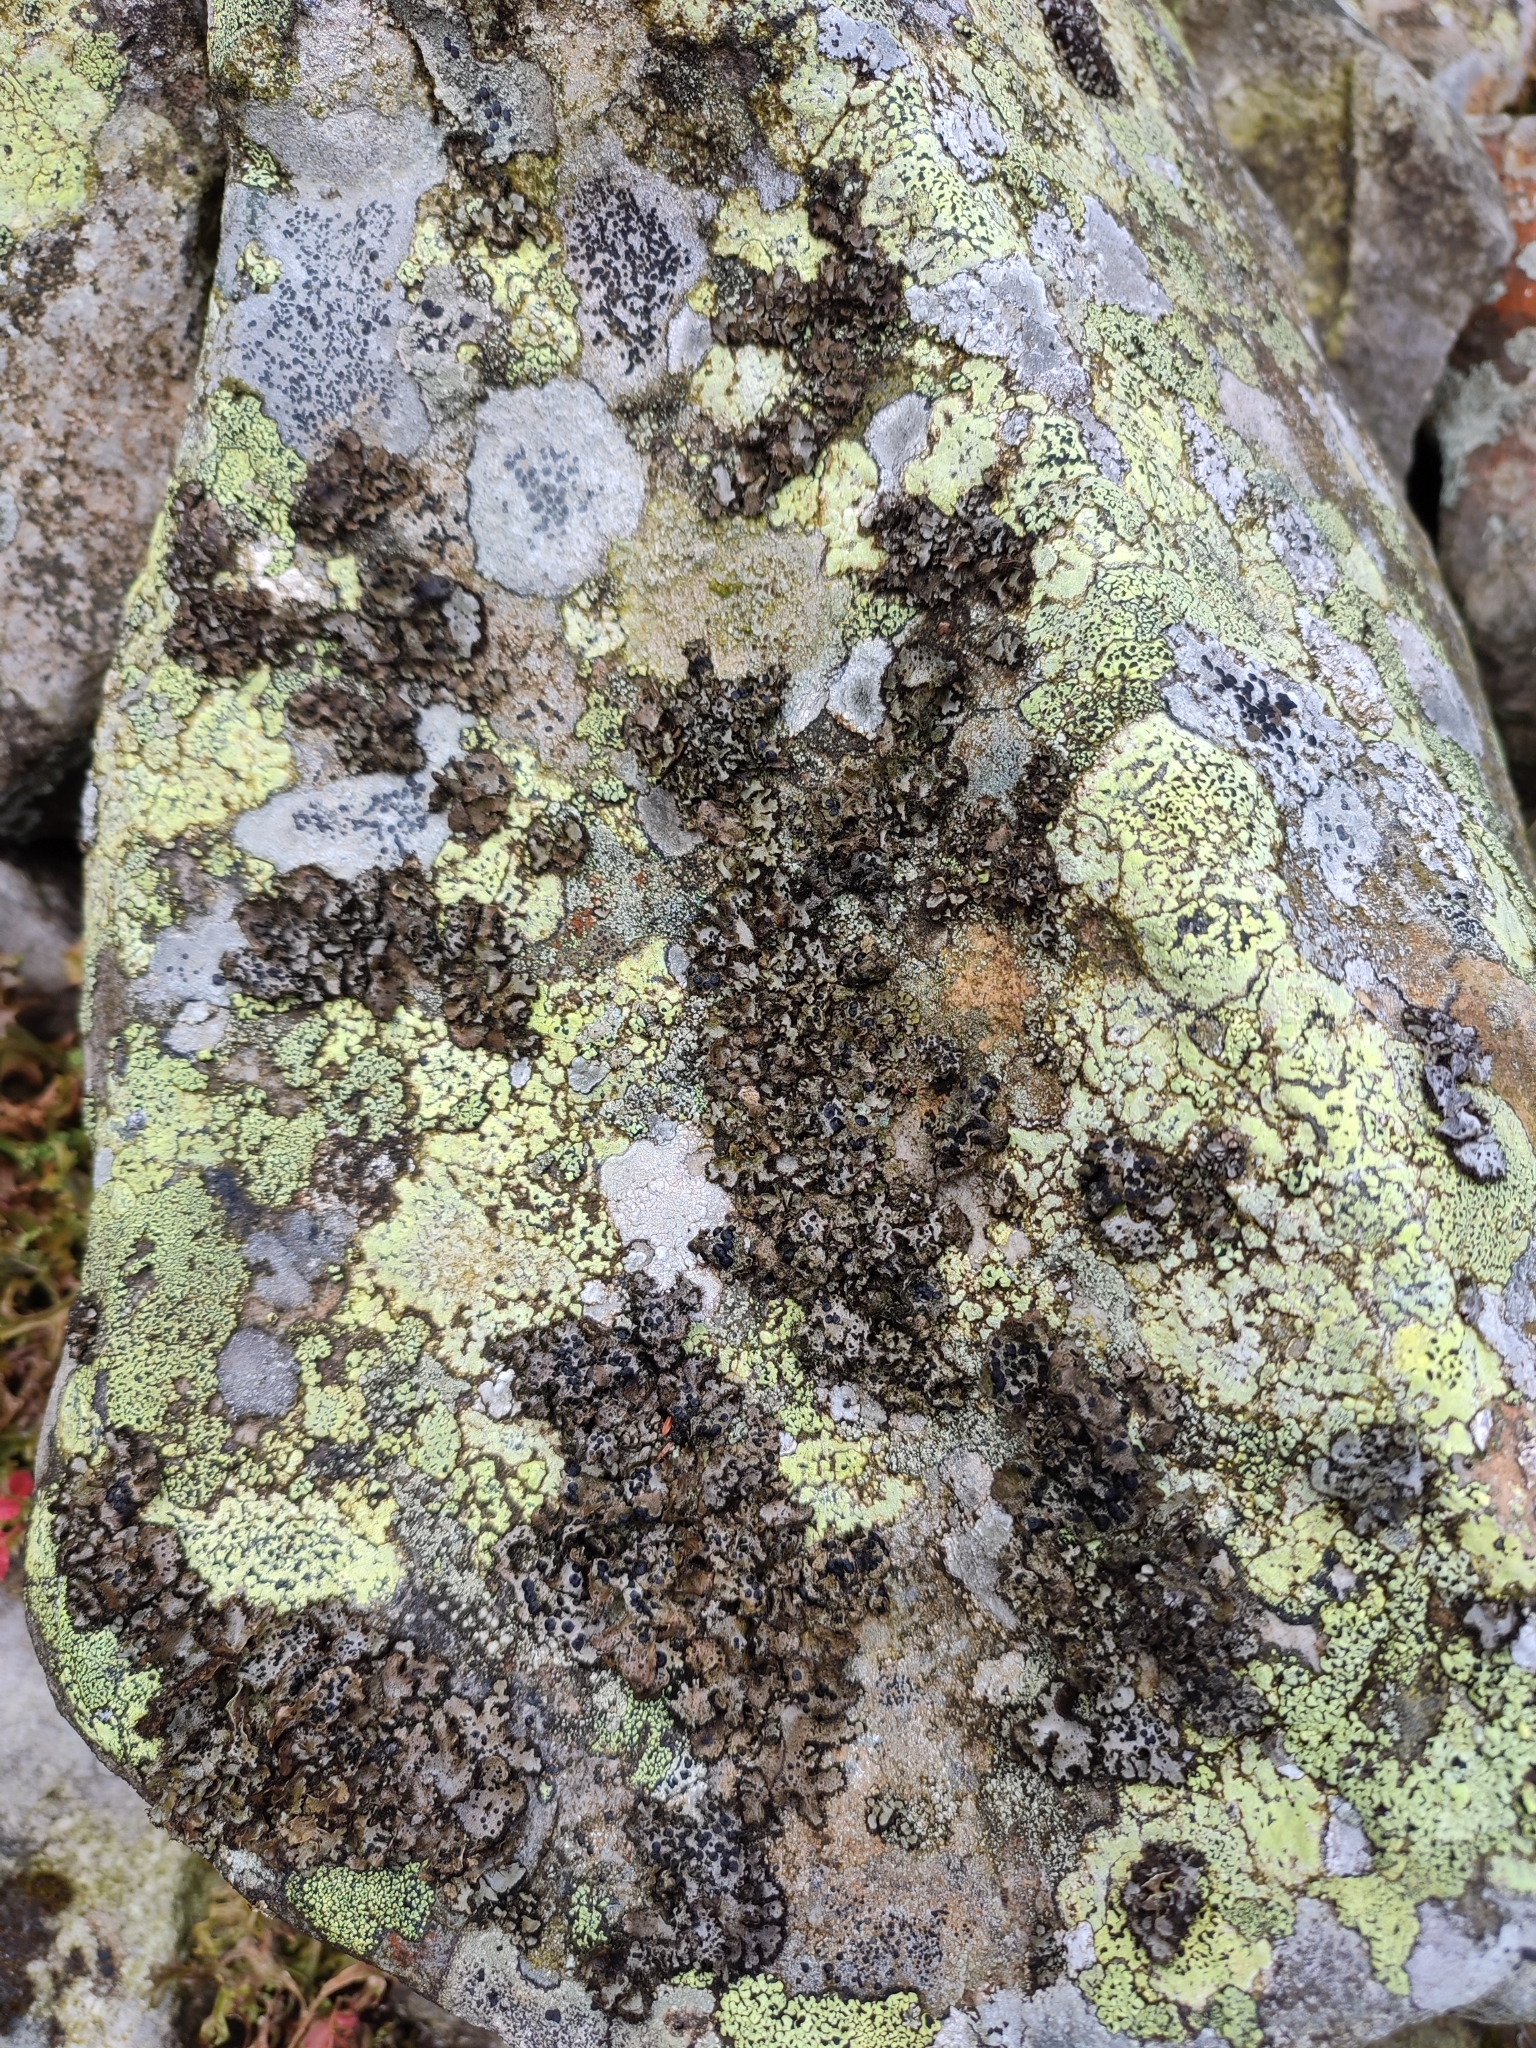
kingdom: Fungi
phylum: Ascomycota
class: Lecanoromycetes
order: Umbilicariales
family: Umbilicariaceae
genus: Umbilicaria
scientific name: Umbilicaria cylindrica
